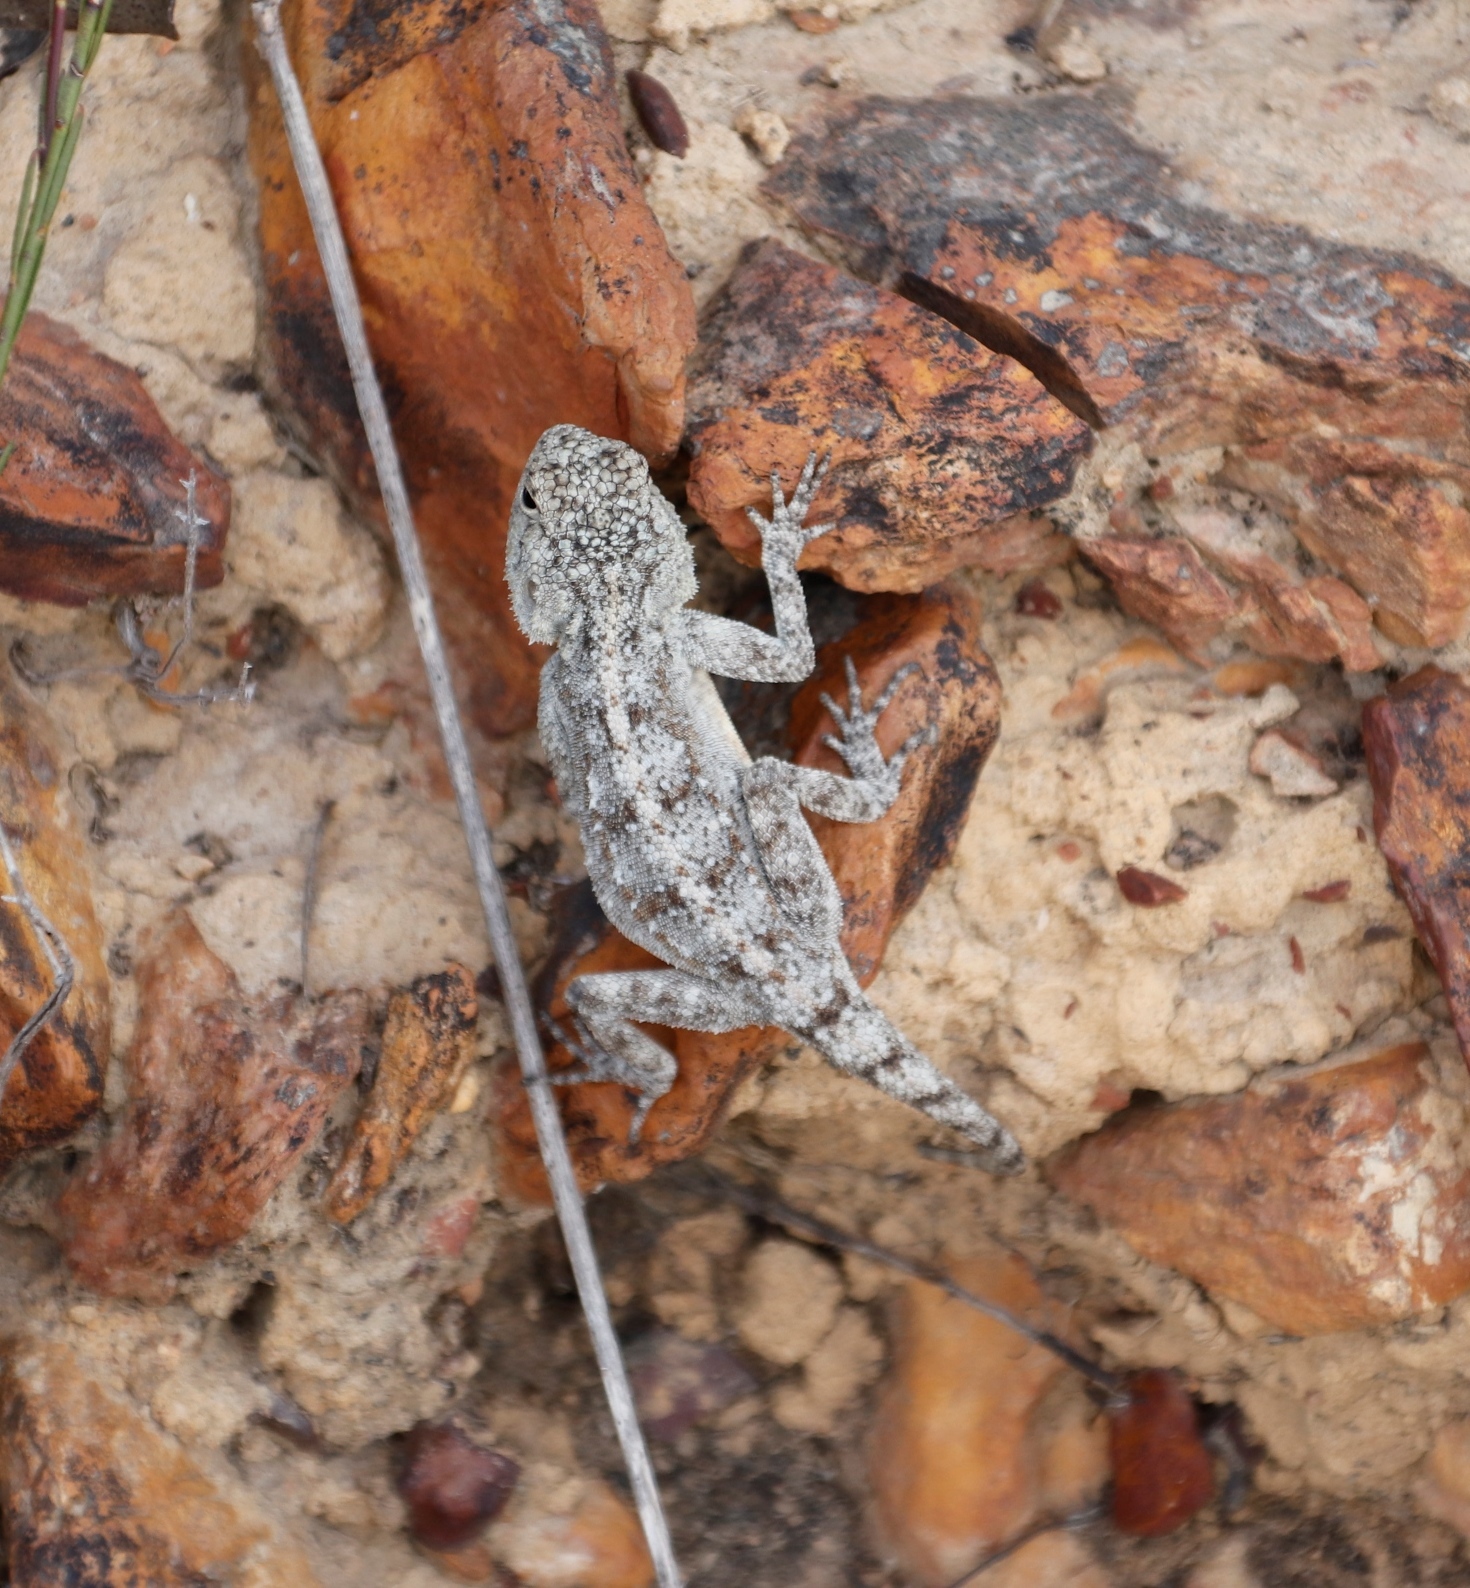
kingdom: Animalia
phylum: Chordata
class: Squamata
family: Agamidae
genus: Agama
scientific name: Agama atra
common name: Southern african rock agama
